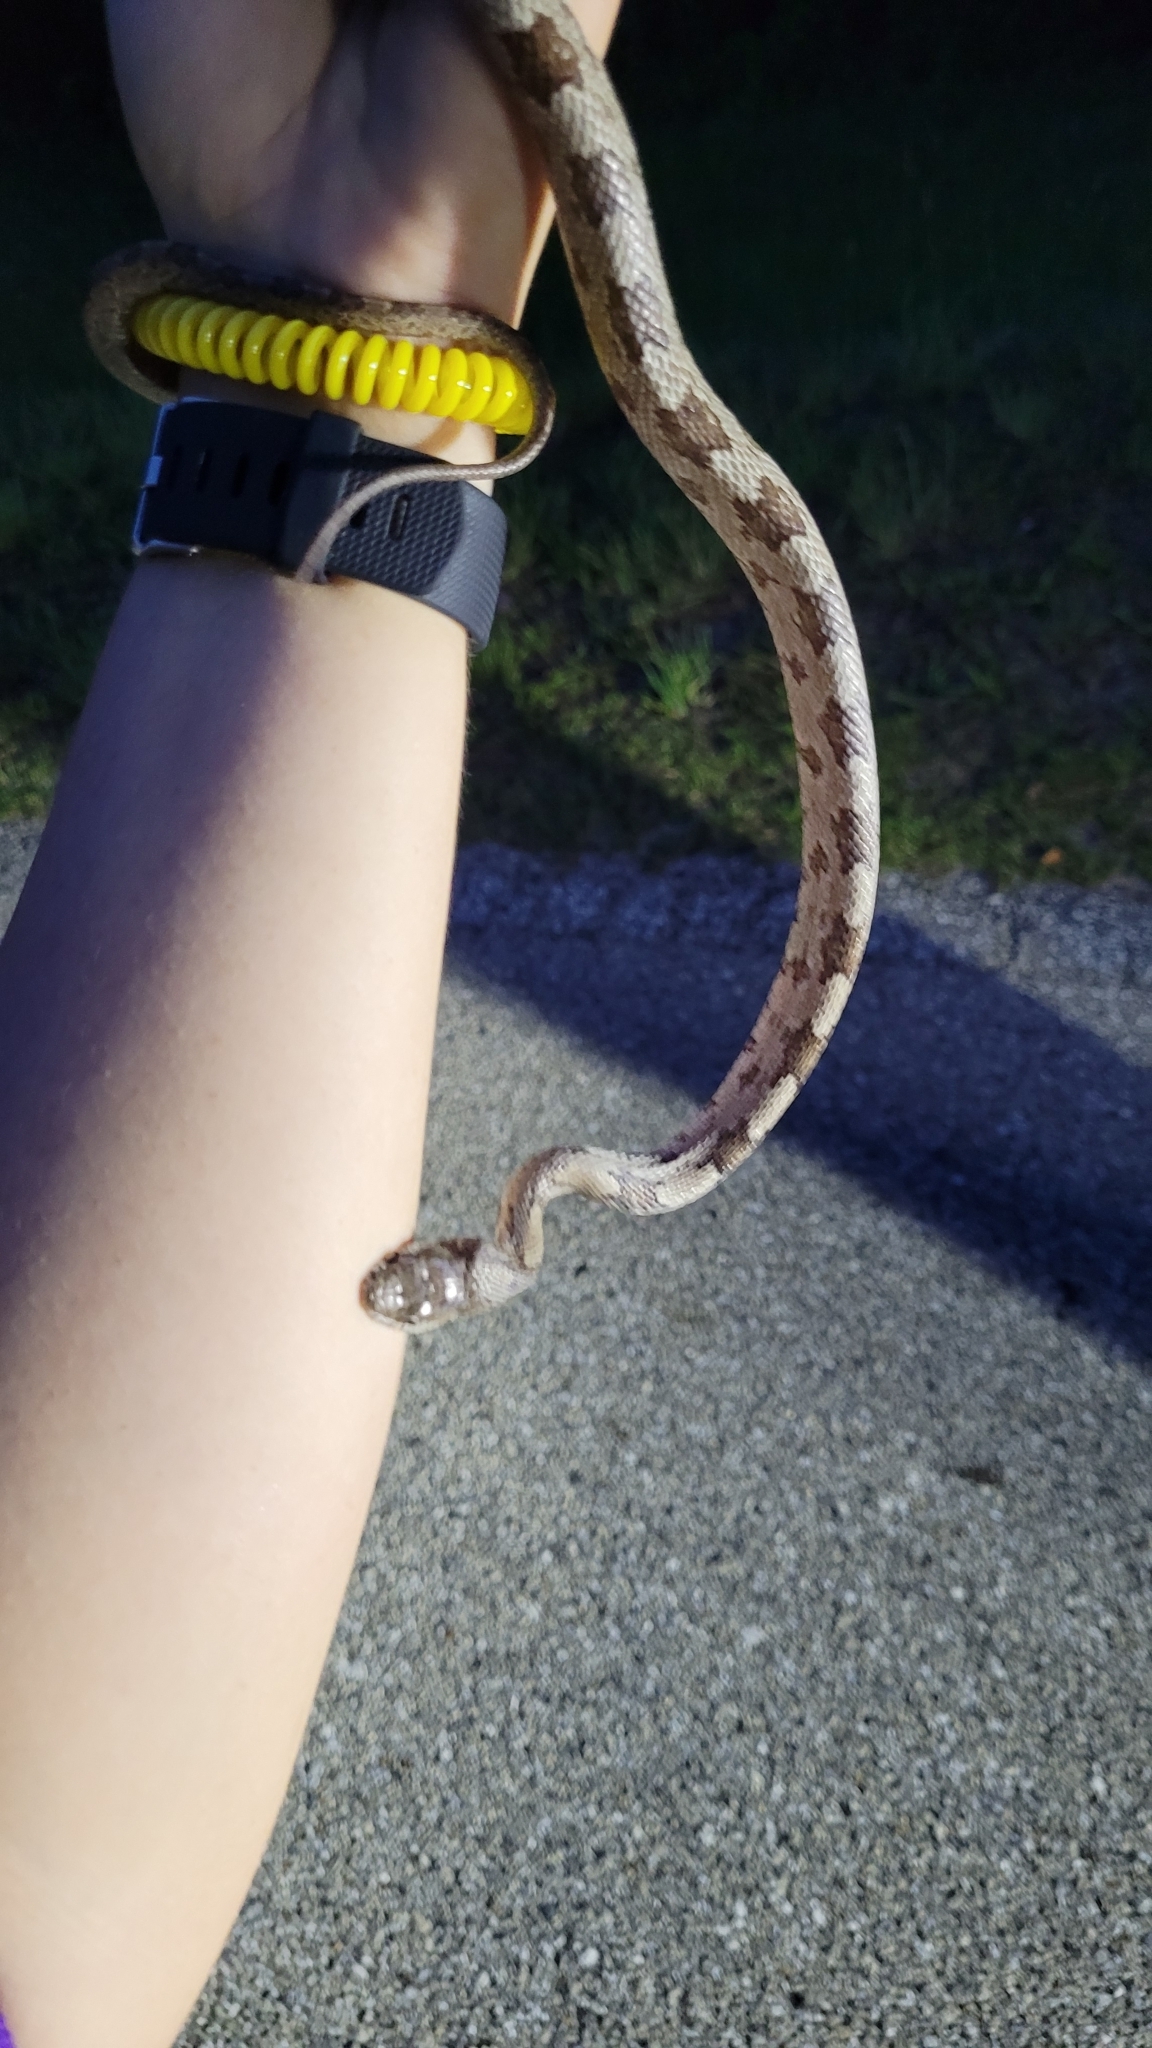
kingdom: Animalia
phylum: Chordata
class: Squamata
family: Colubridae
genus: Pantherophis
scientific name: Pantherophis spiloides
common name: Gray rat snake
